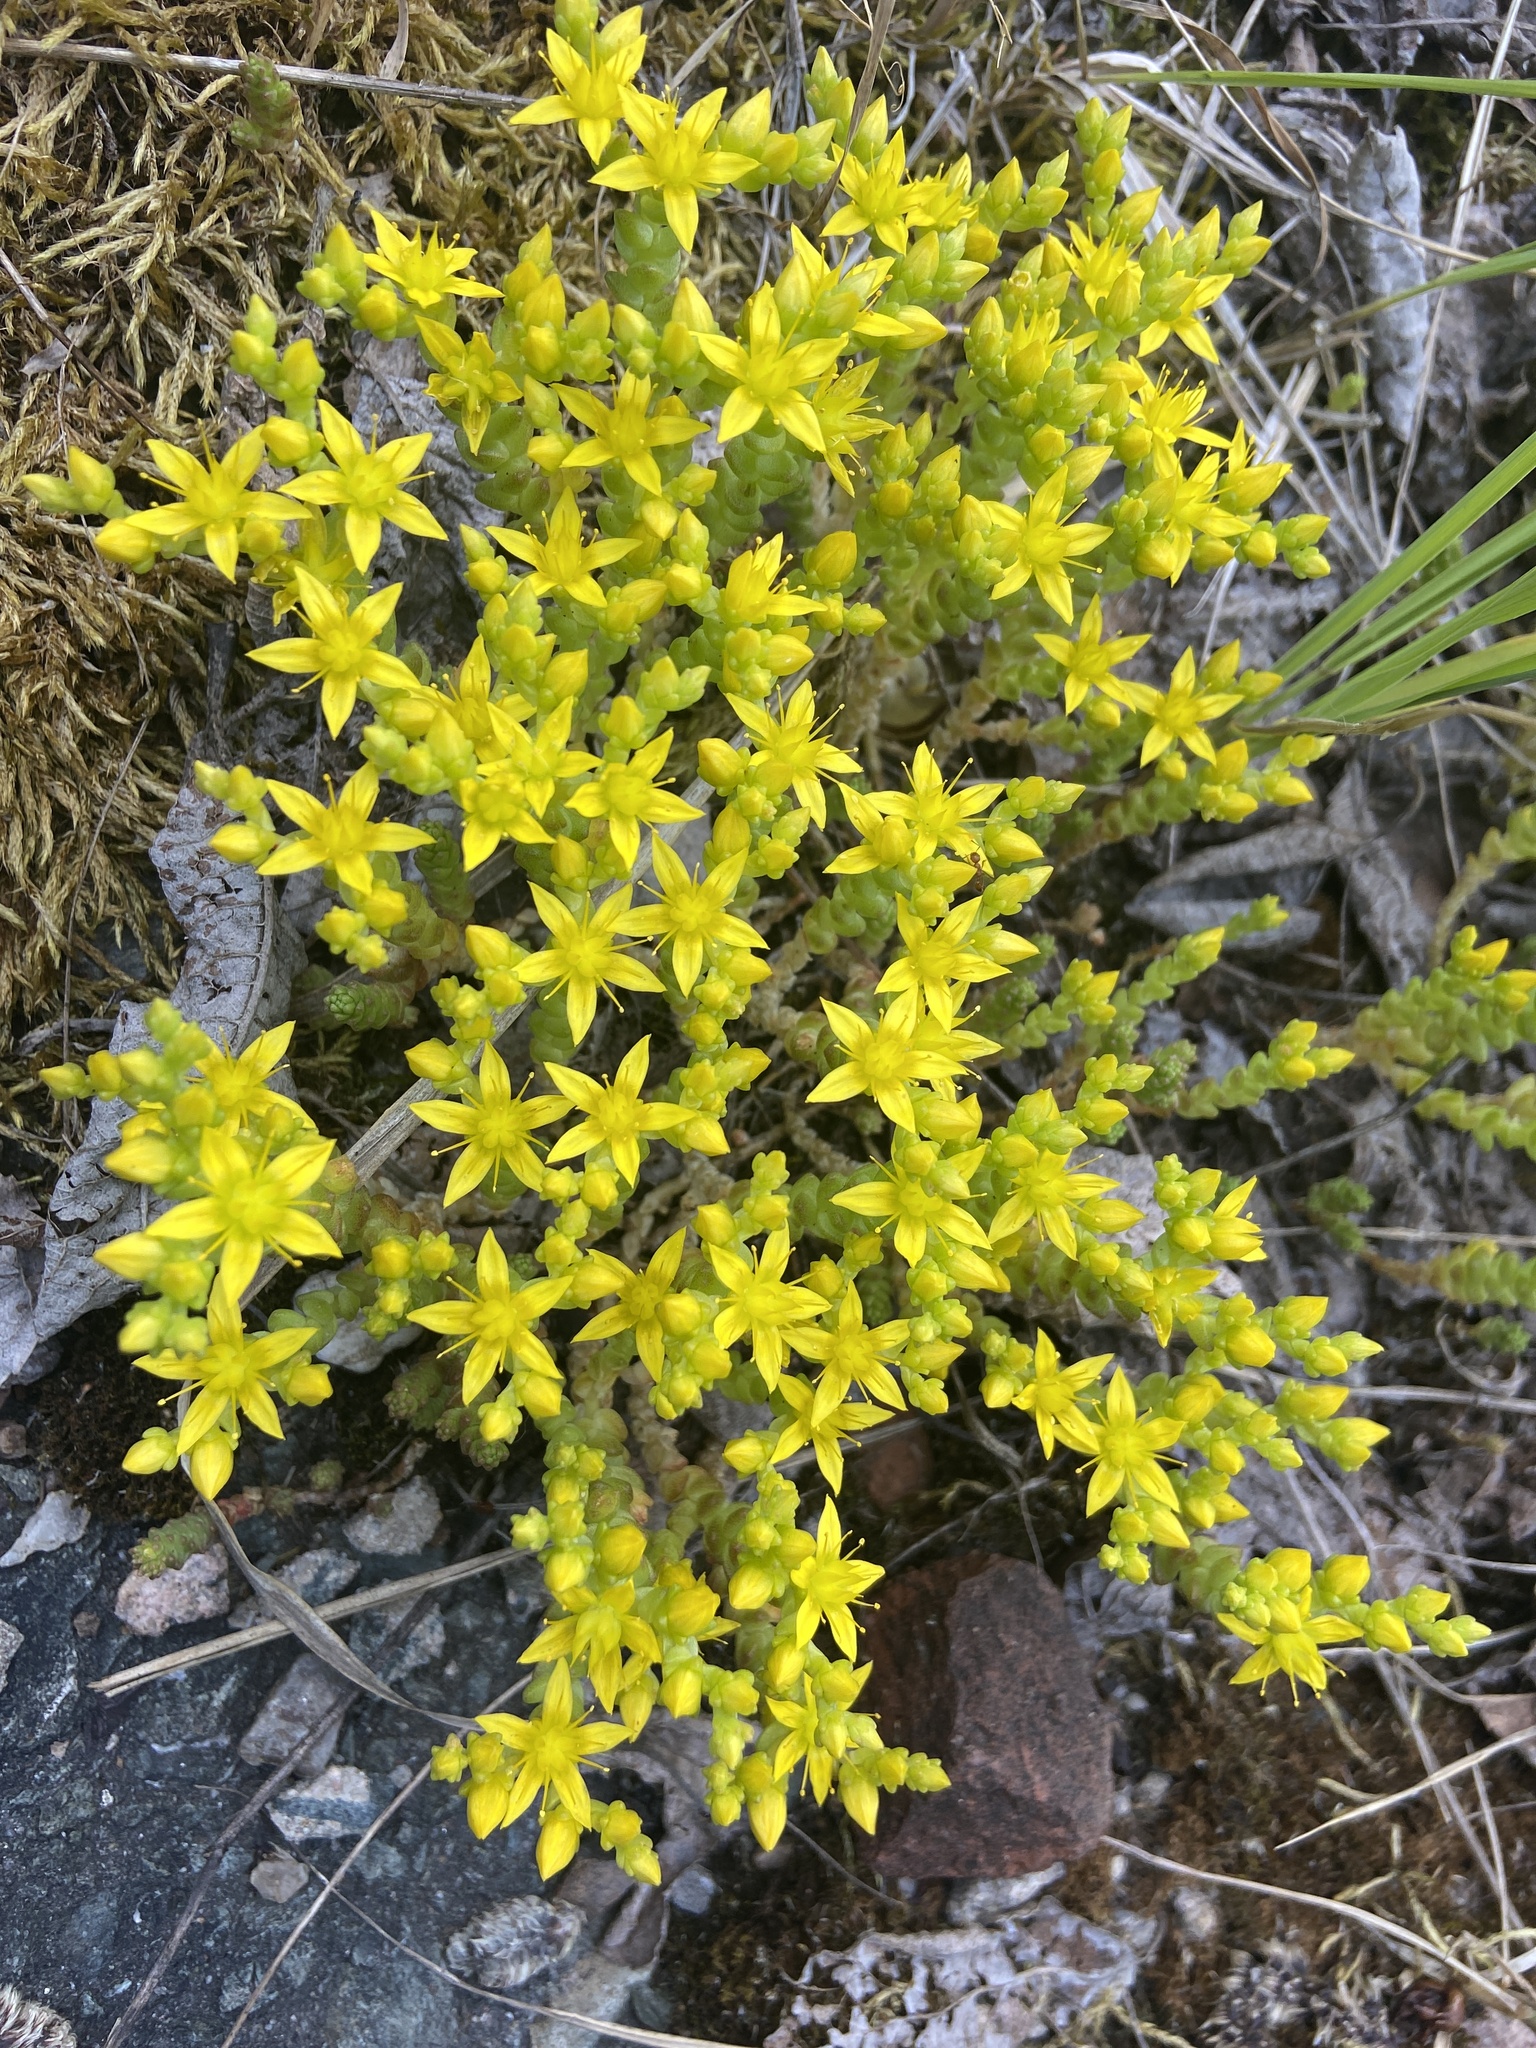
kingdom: Plantae
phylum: Tracheophyta
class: Magnoliopsida
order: Saxifragales
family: Crassulaceae
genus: Sedum
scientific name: Sedum acre
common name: Biting stonecrop
